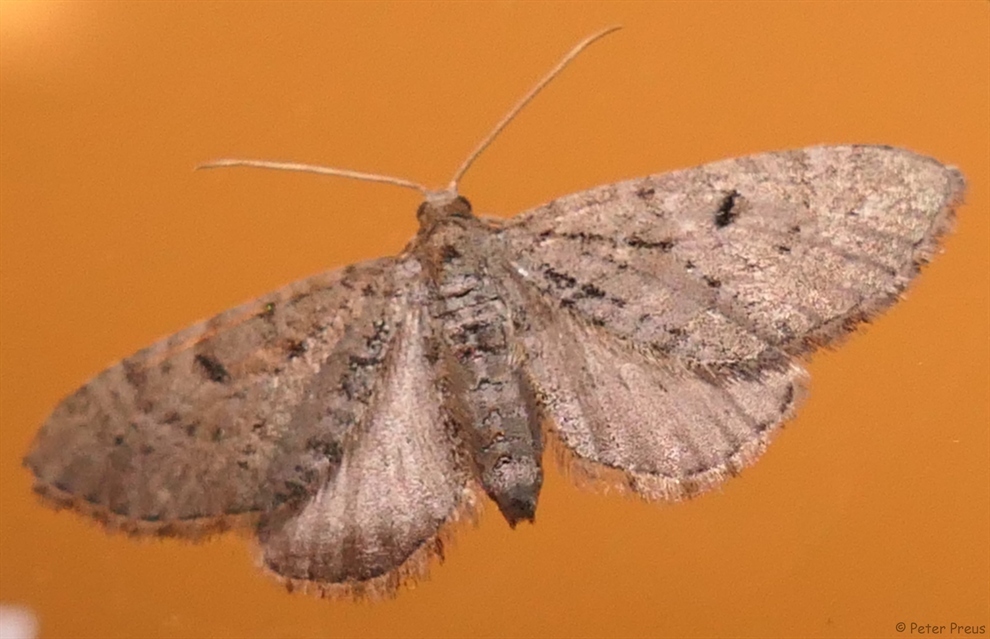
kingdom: Animalia
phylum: Arthropoda
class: Insecta
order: Lepidoptera
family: Geometridae
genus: Eupithecia
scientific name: Eupithecia intricata
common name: Freyers pug
